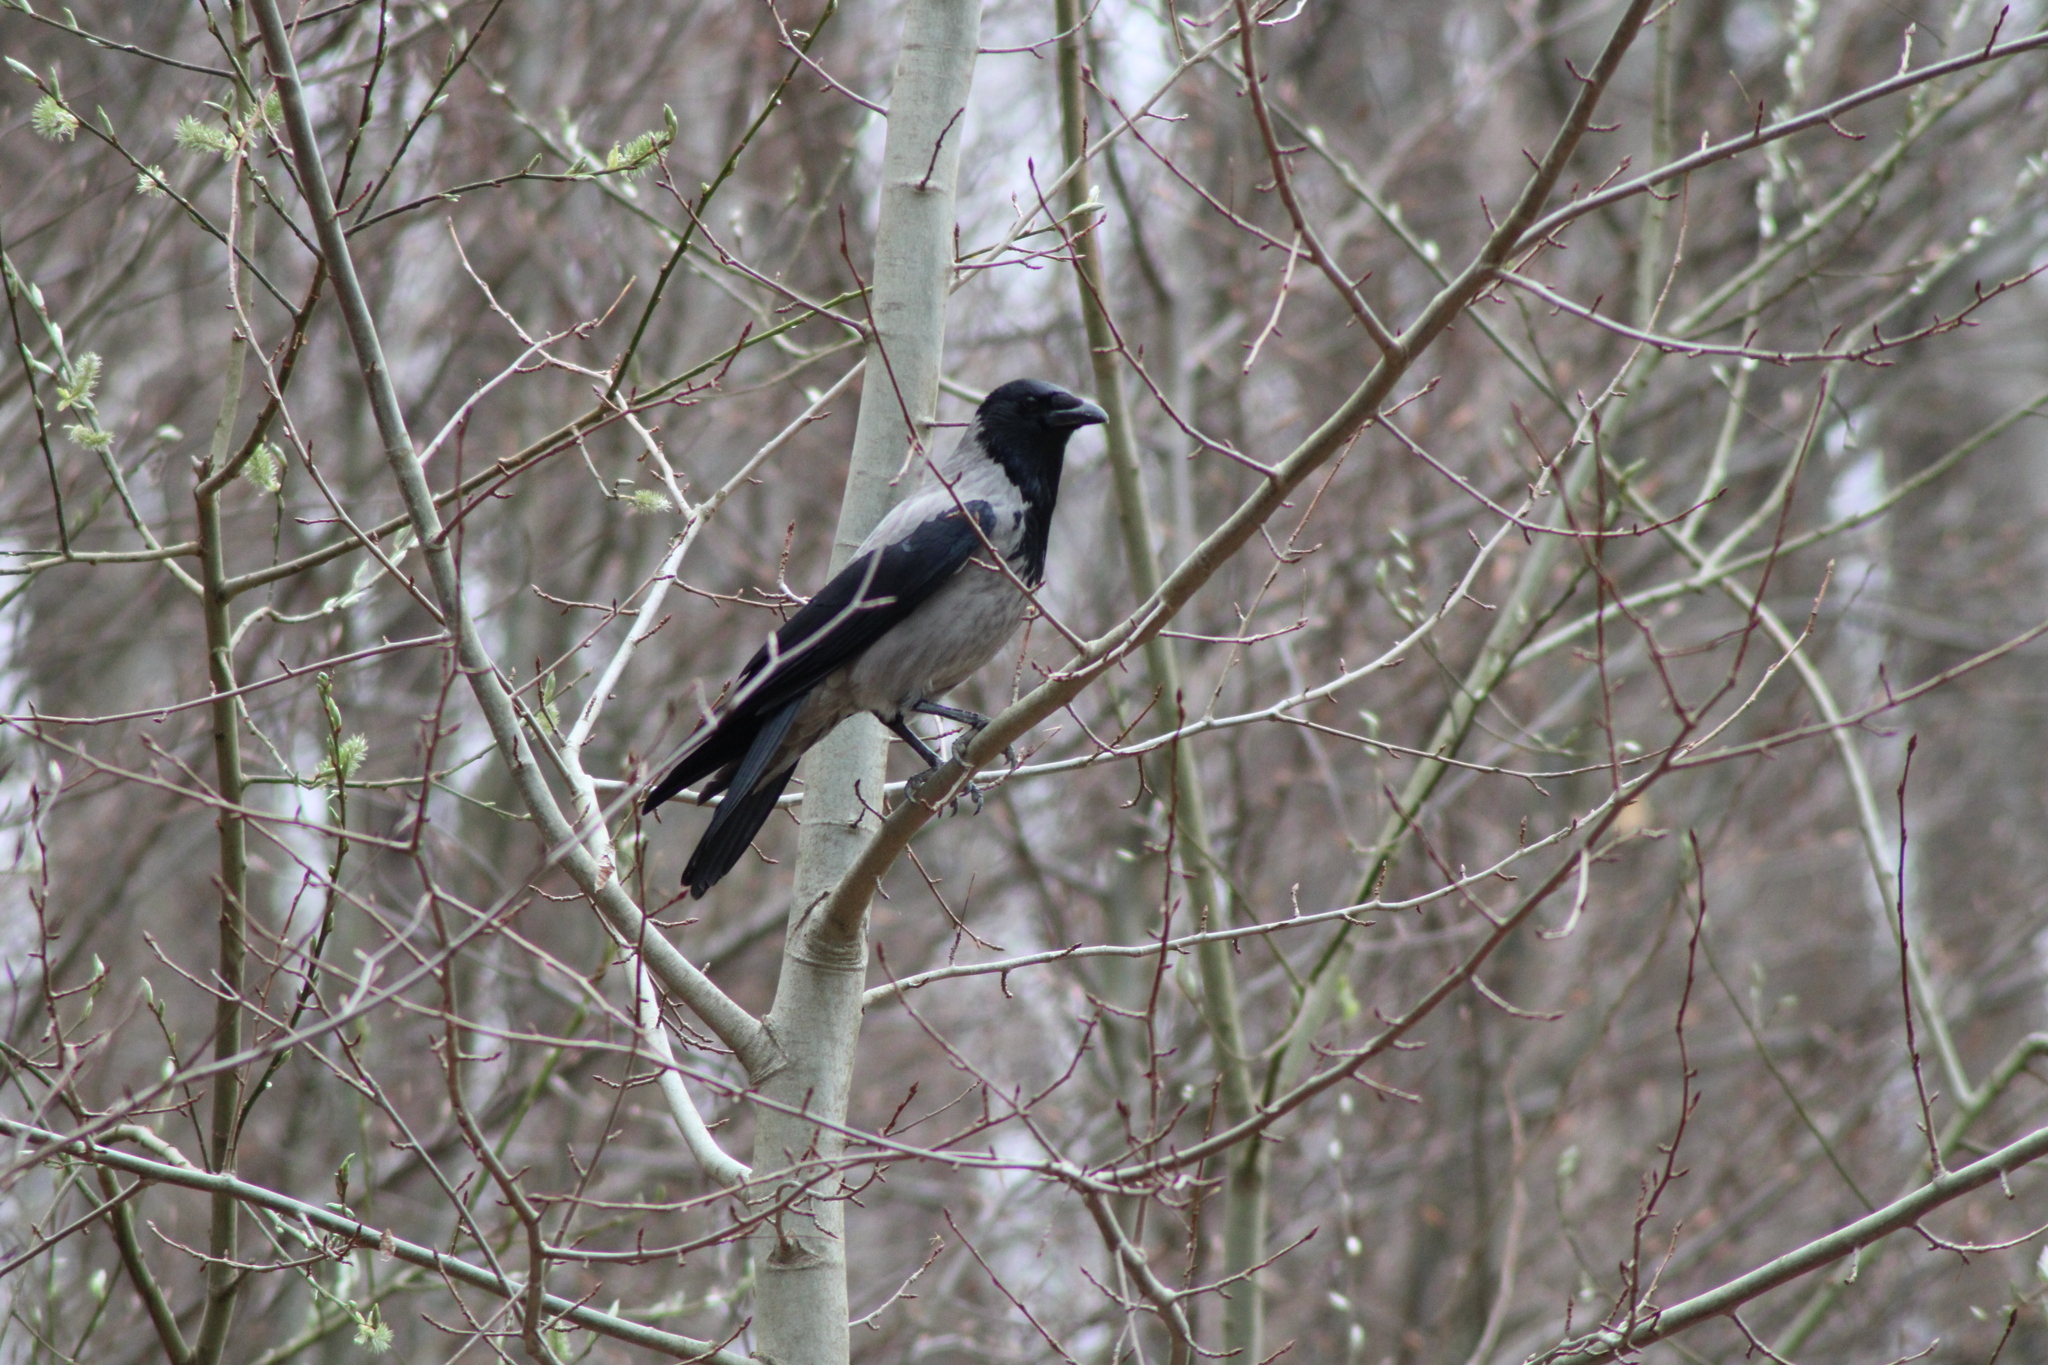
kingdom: Animalia
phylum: Chordata
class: Aves
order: Passeriformes
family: Corvidae
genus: Corvus
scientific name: Corvus cornix
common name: Hooded crow
